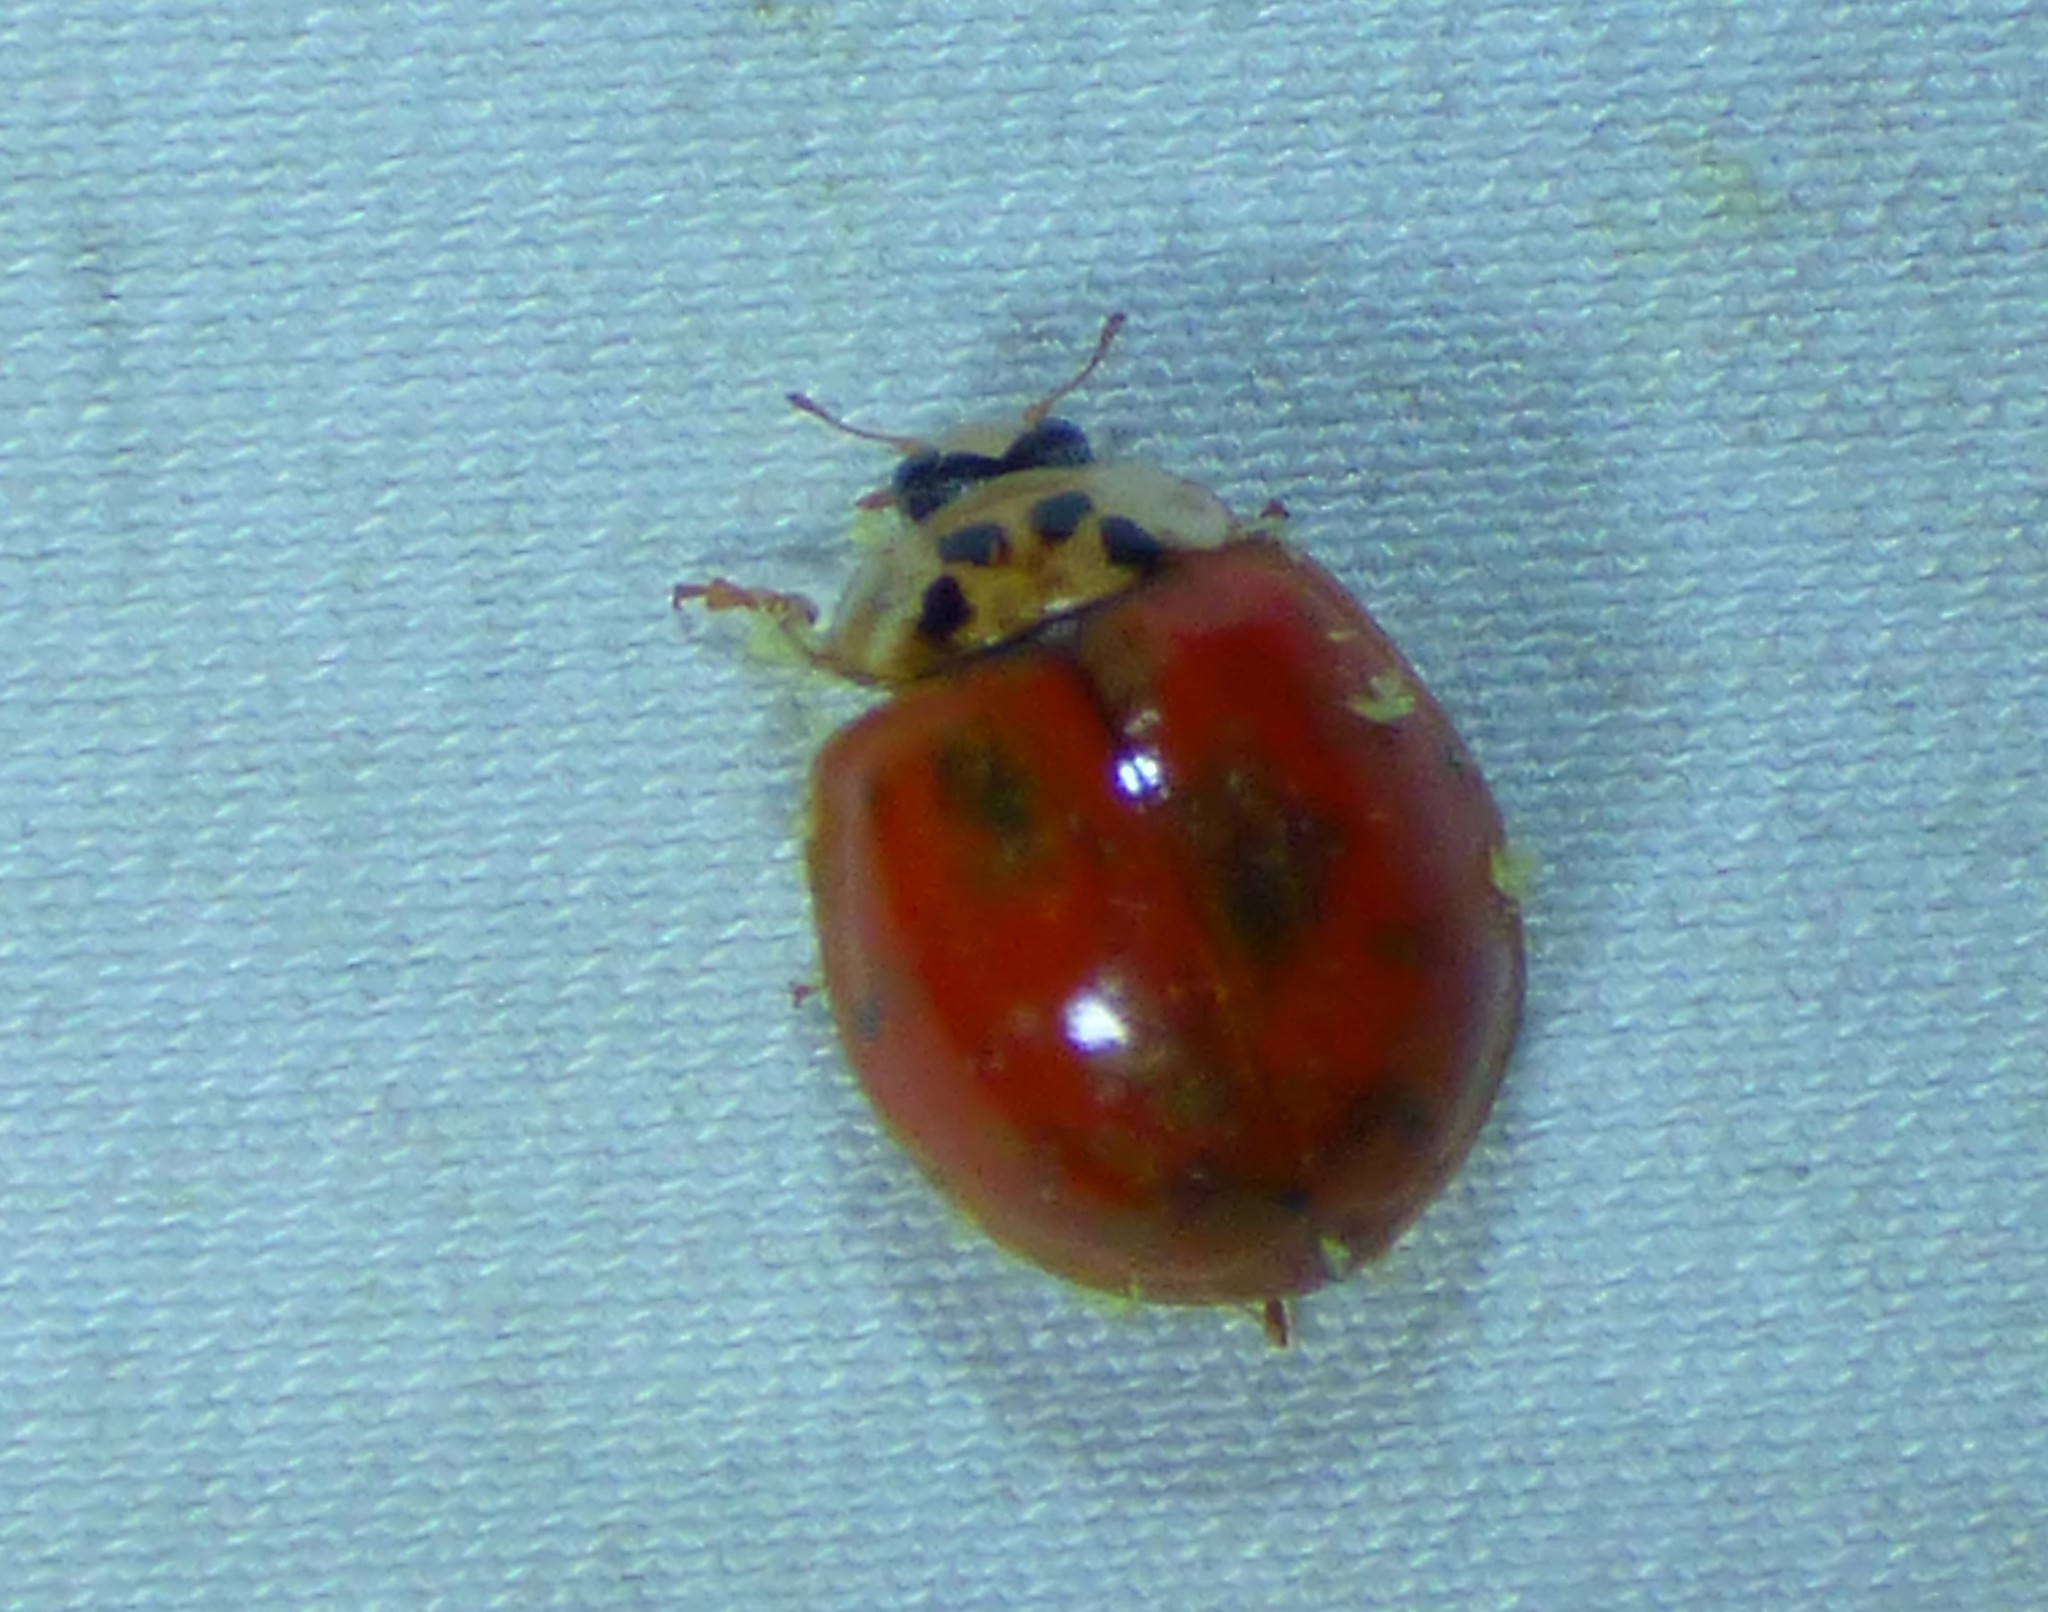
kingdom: Animalia
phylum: Arthropoda
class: Insecta
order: Coleoptera
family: Coccinellidae
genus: Harmonia
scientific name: Harmonia axyridis
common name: Harlequin ladybird
